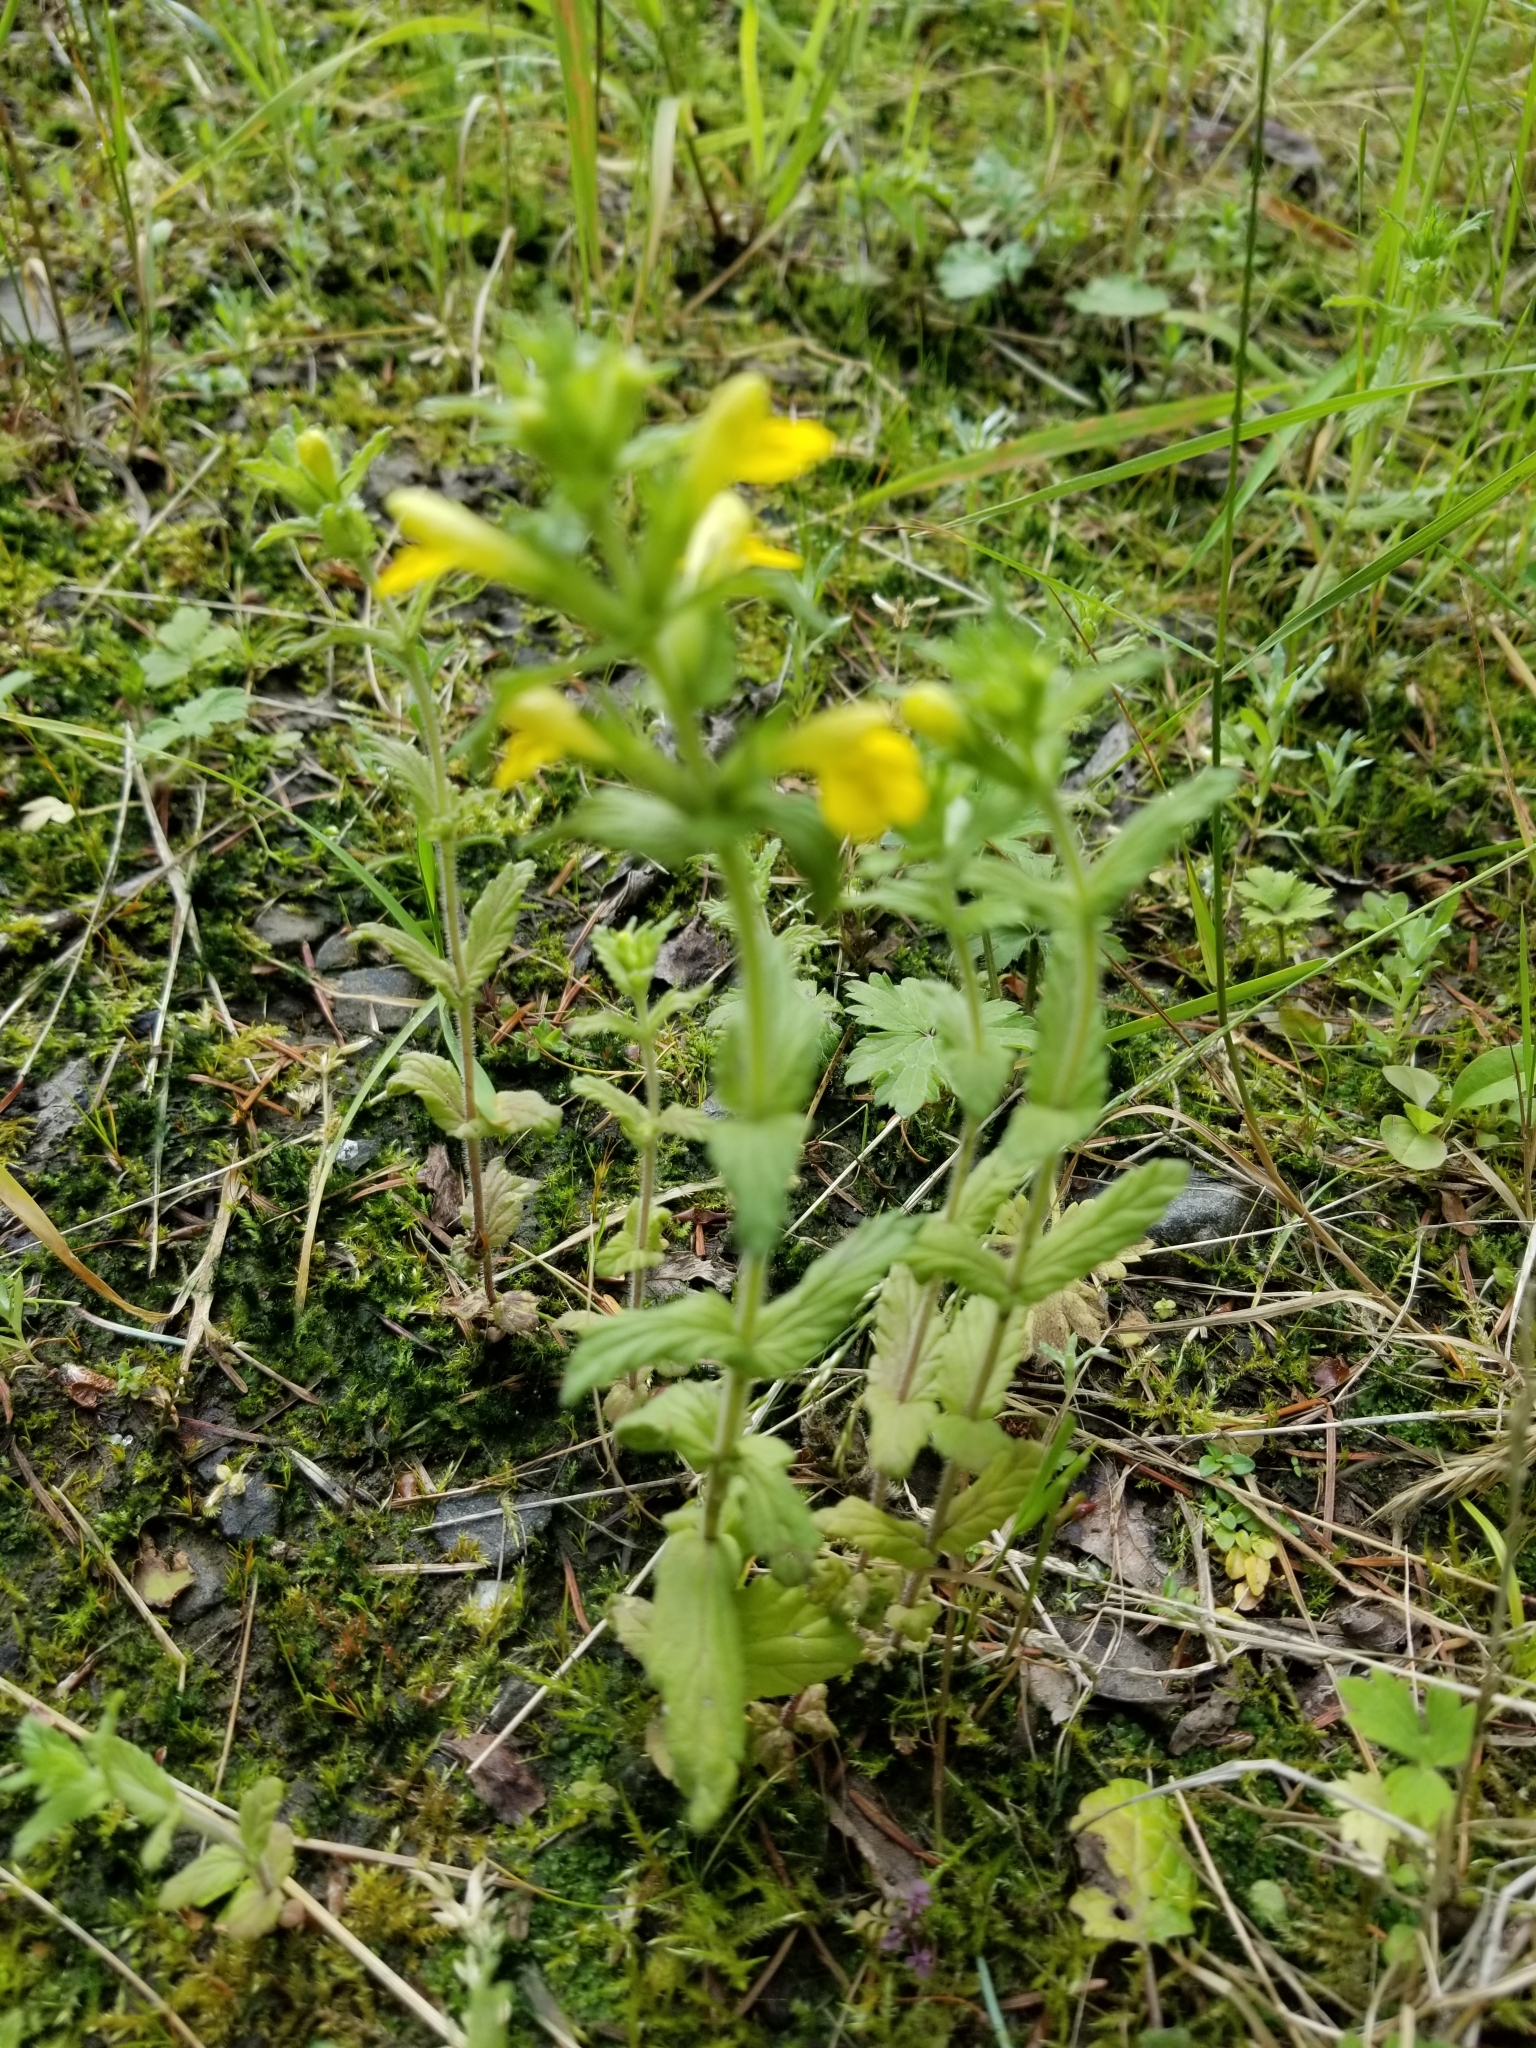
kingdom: Plantae
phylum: Tracheophyta
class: Magnoliopsida
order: Lamiales
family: Orobanchaceae
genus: Bellardia
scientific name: Bellardia viscosa
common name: Sticky parentucellia
